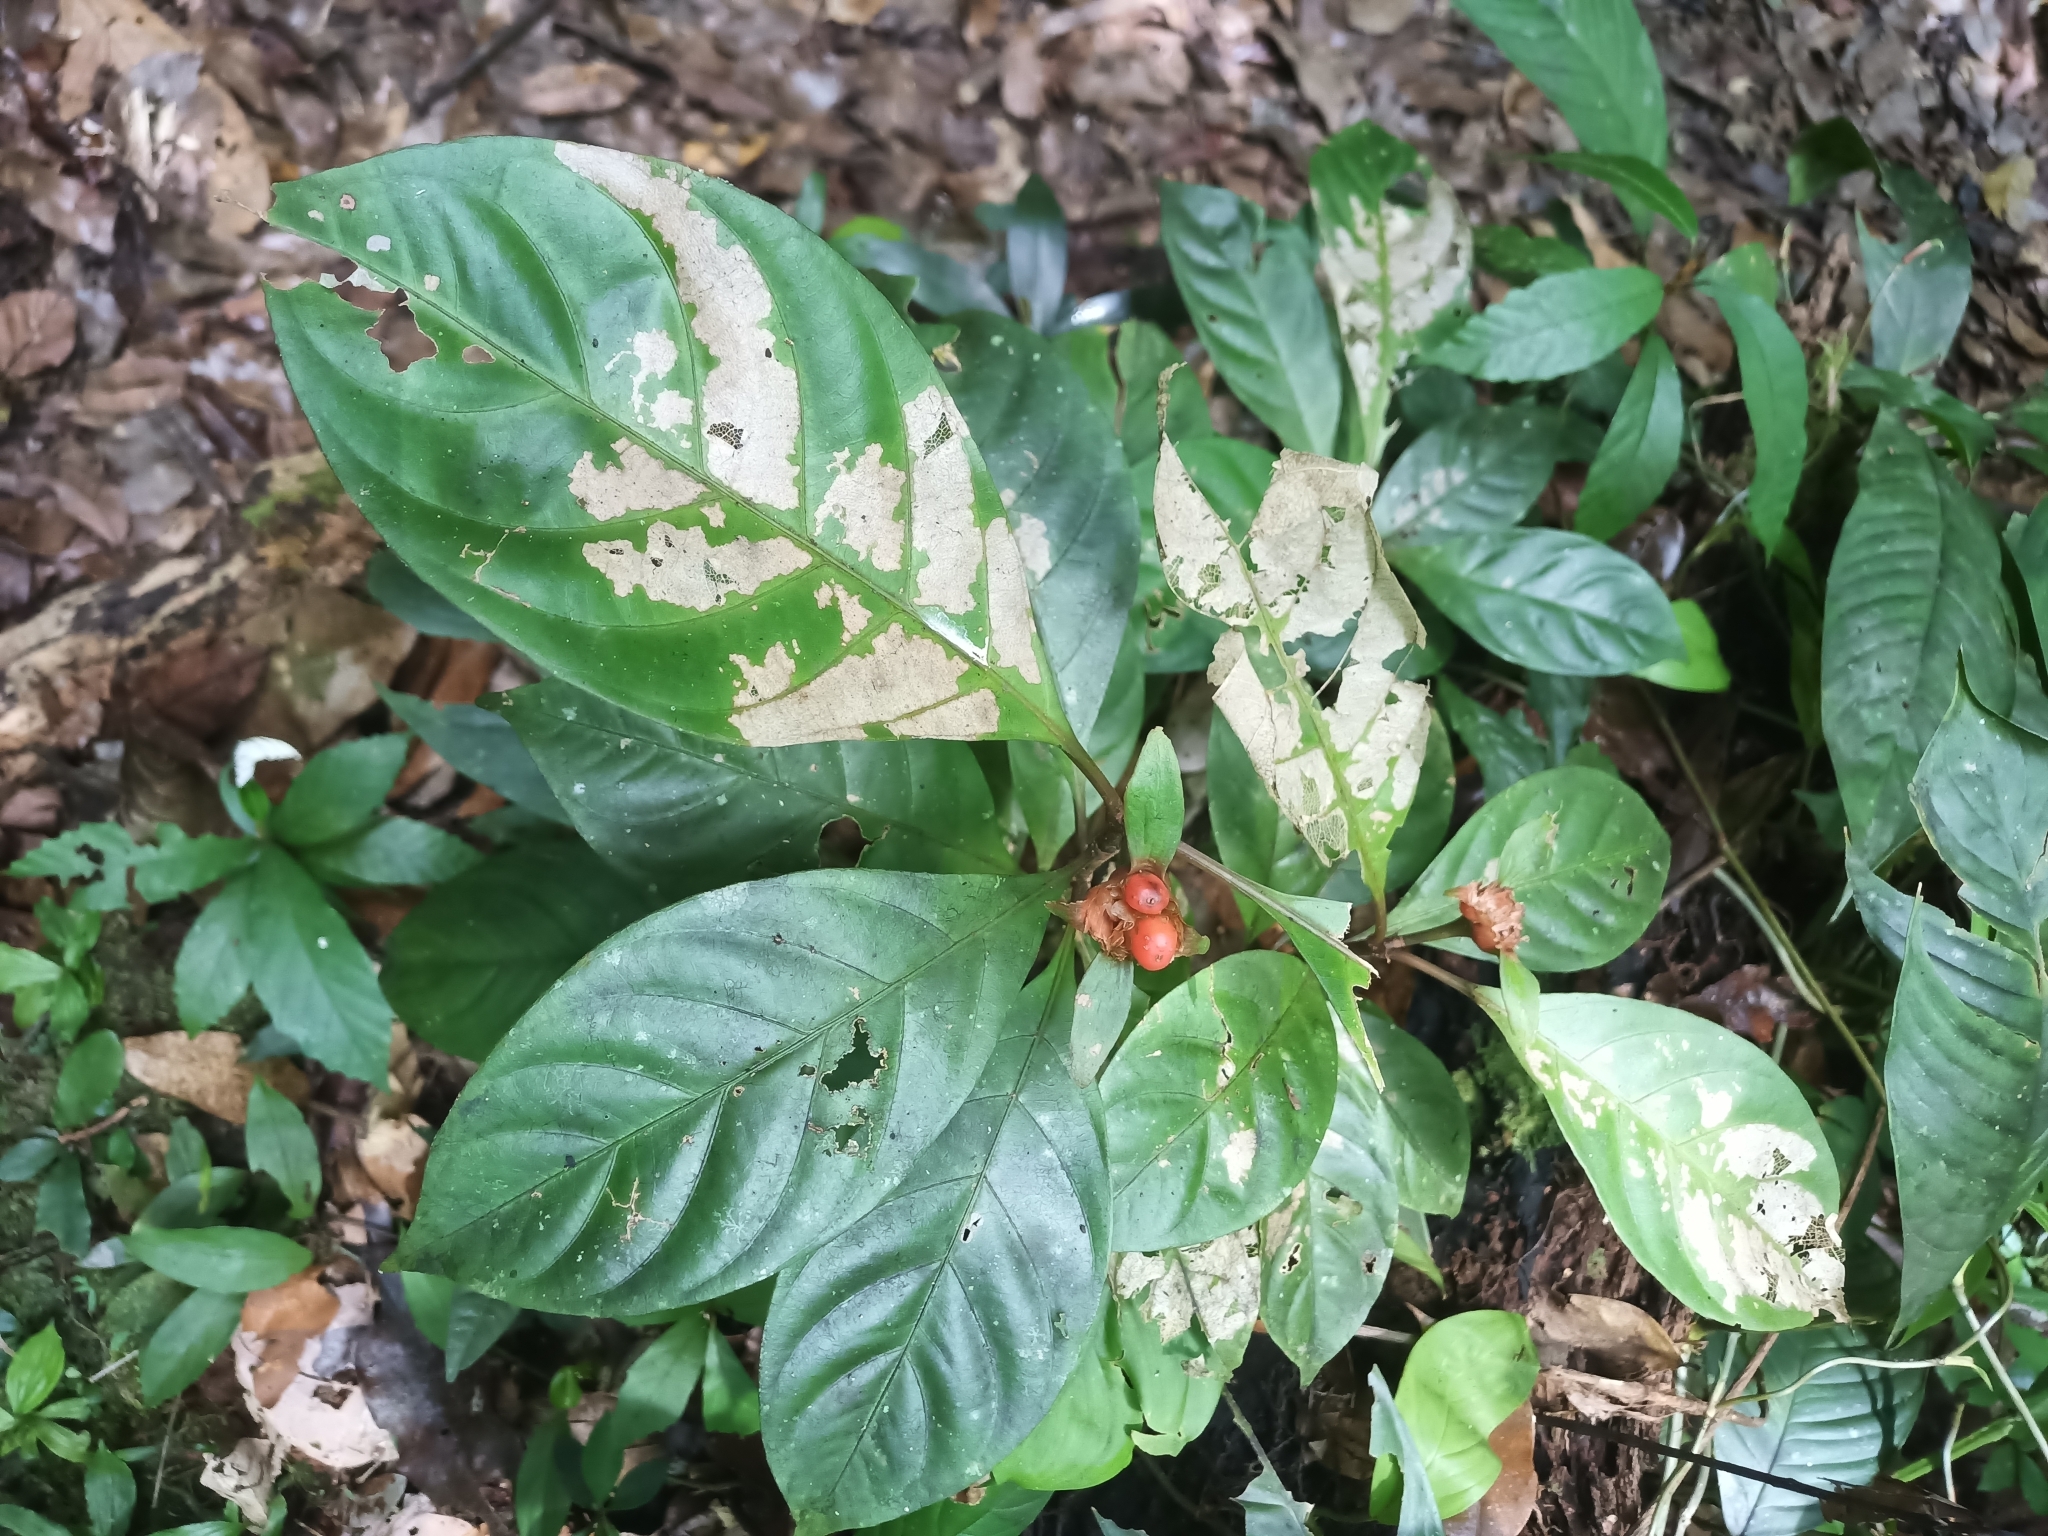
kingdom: Plantae
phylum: Tracheophyta
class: Magnoliopsida
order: Gentianales
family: Rubiaceae
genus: Carapichea
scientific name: Carapichea guianensis
